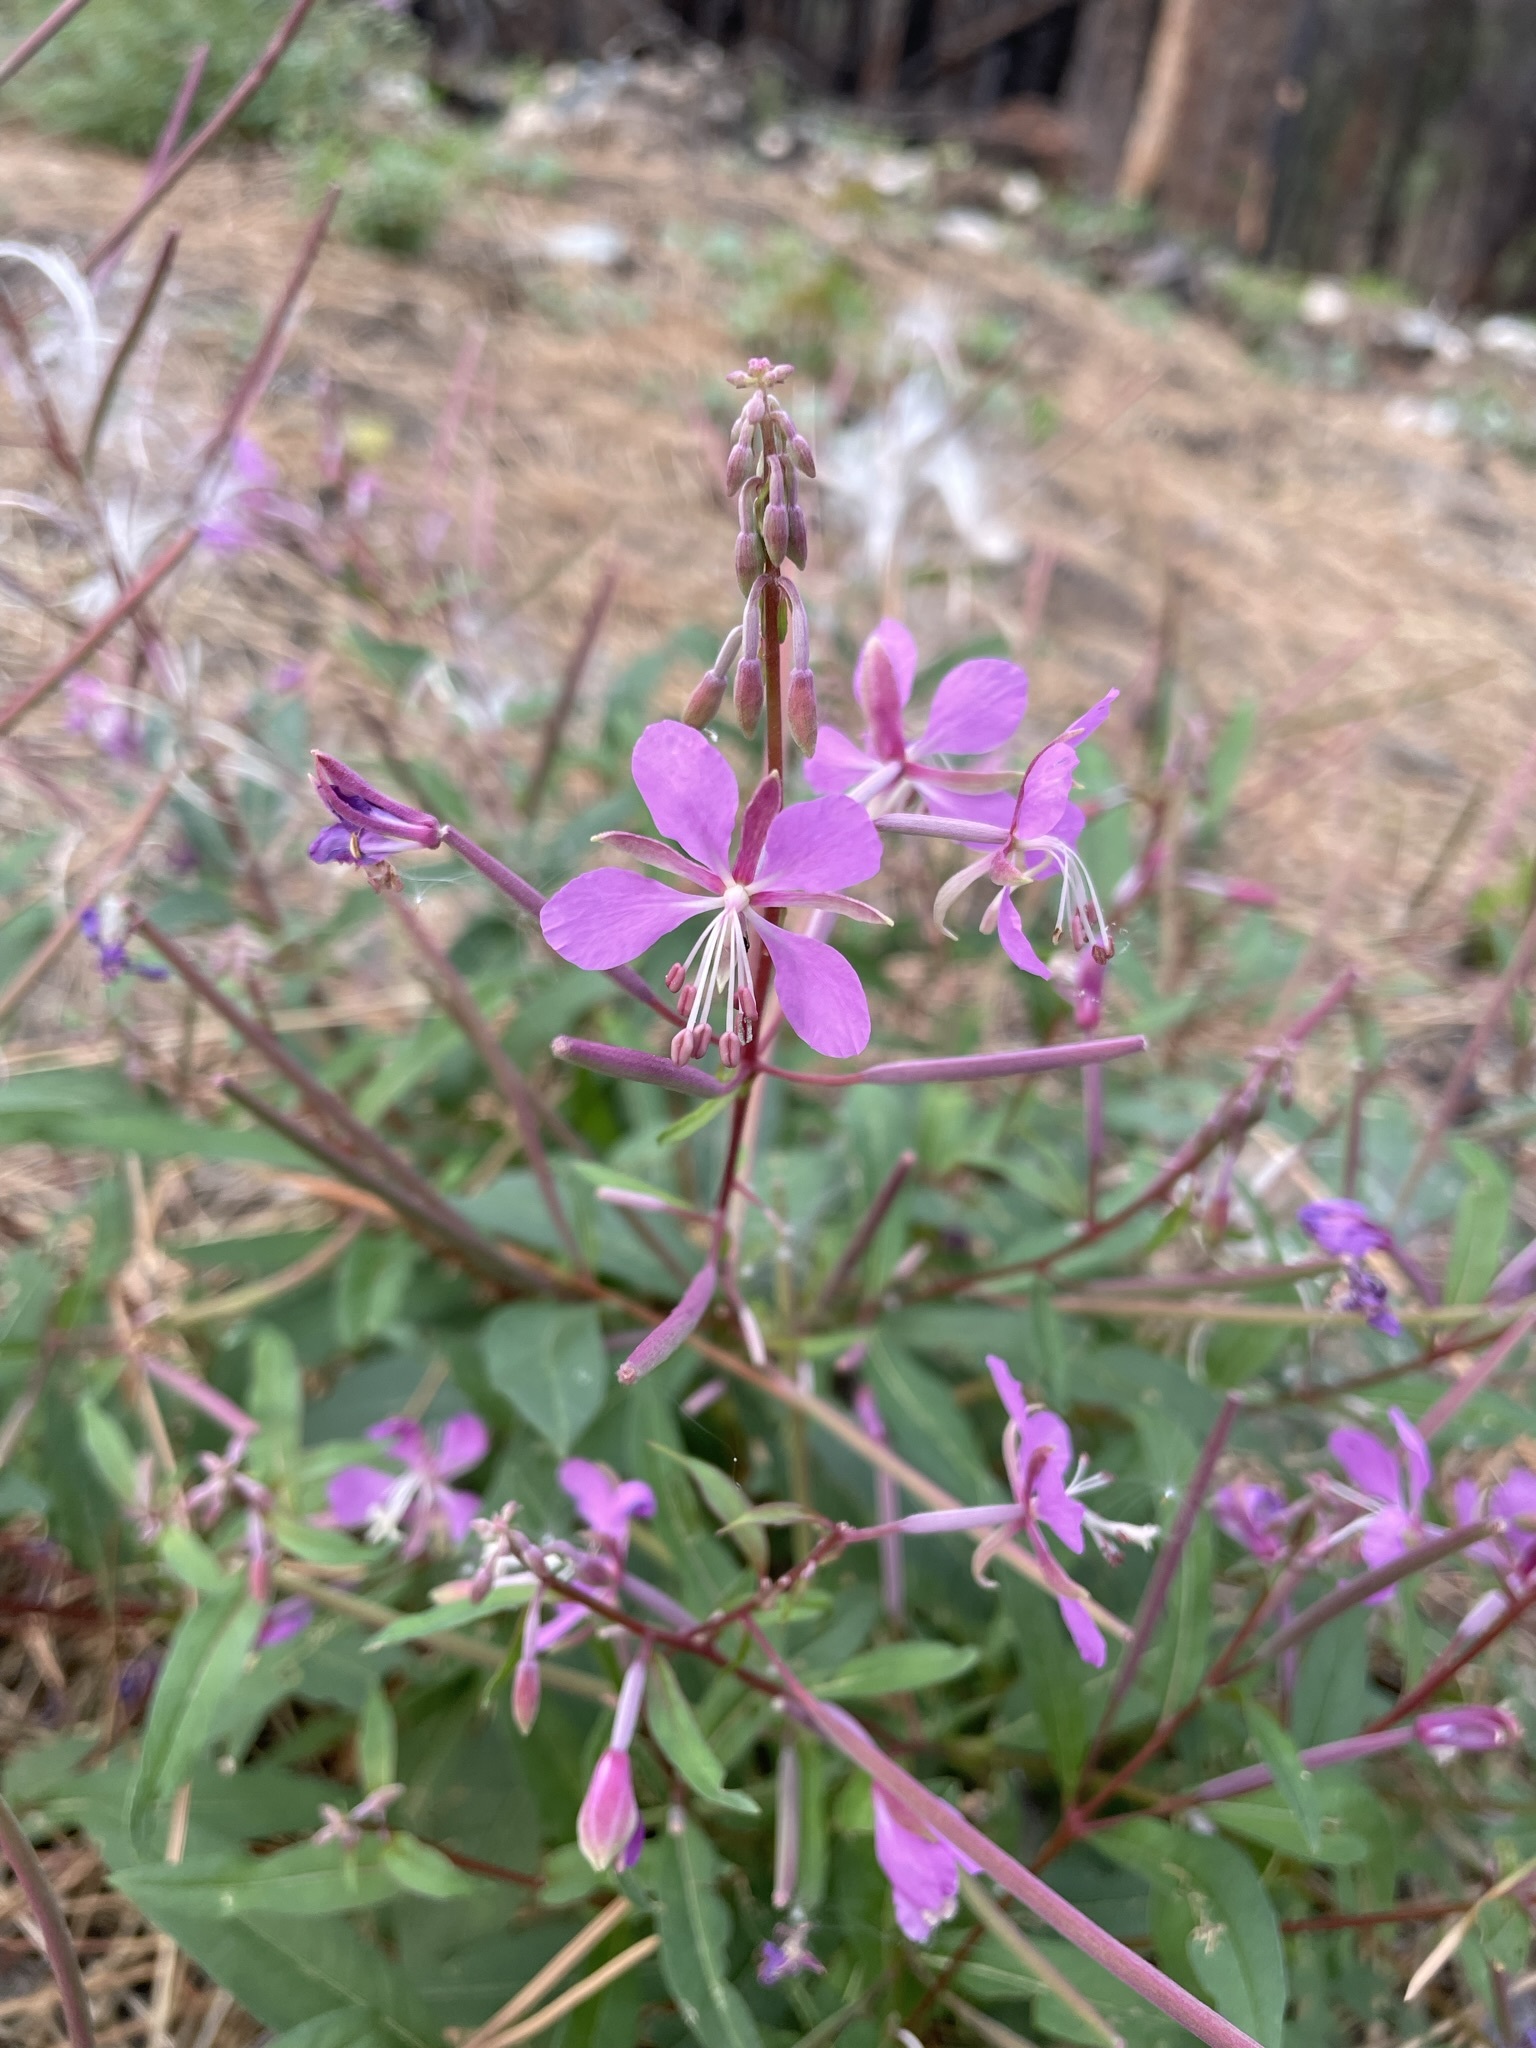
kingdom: Plantae
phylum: Tracheophyta
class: Magnoliopsida
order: Myrtales
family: Onagraceae
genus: Chamaenerion
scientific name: Chamaenerion angustifolium
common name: Fireweed
